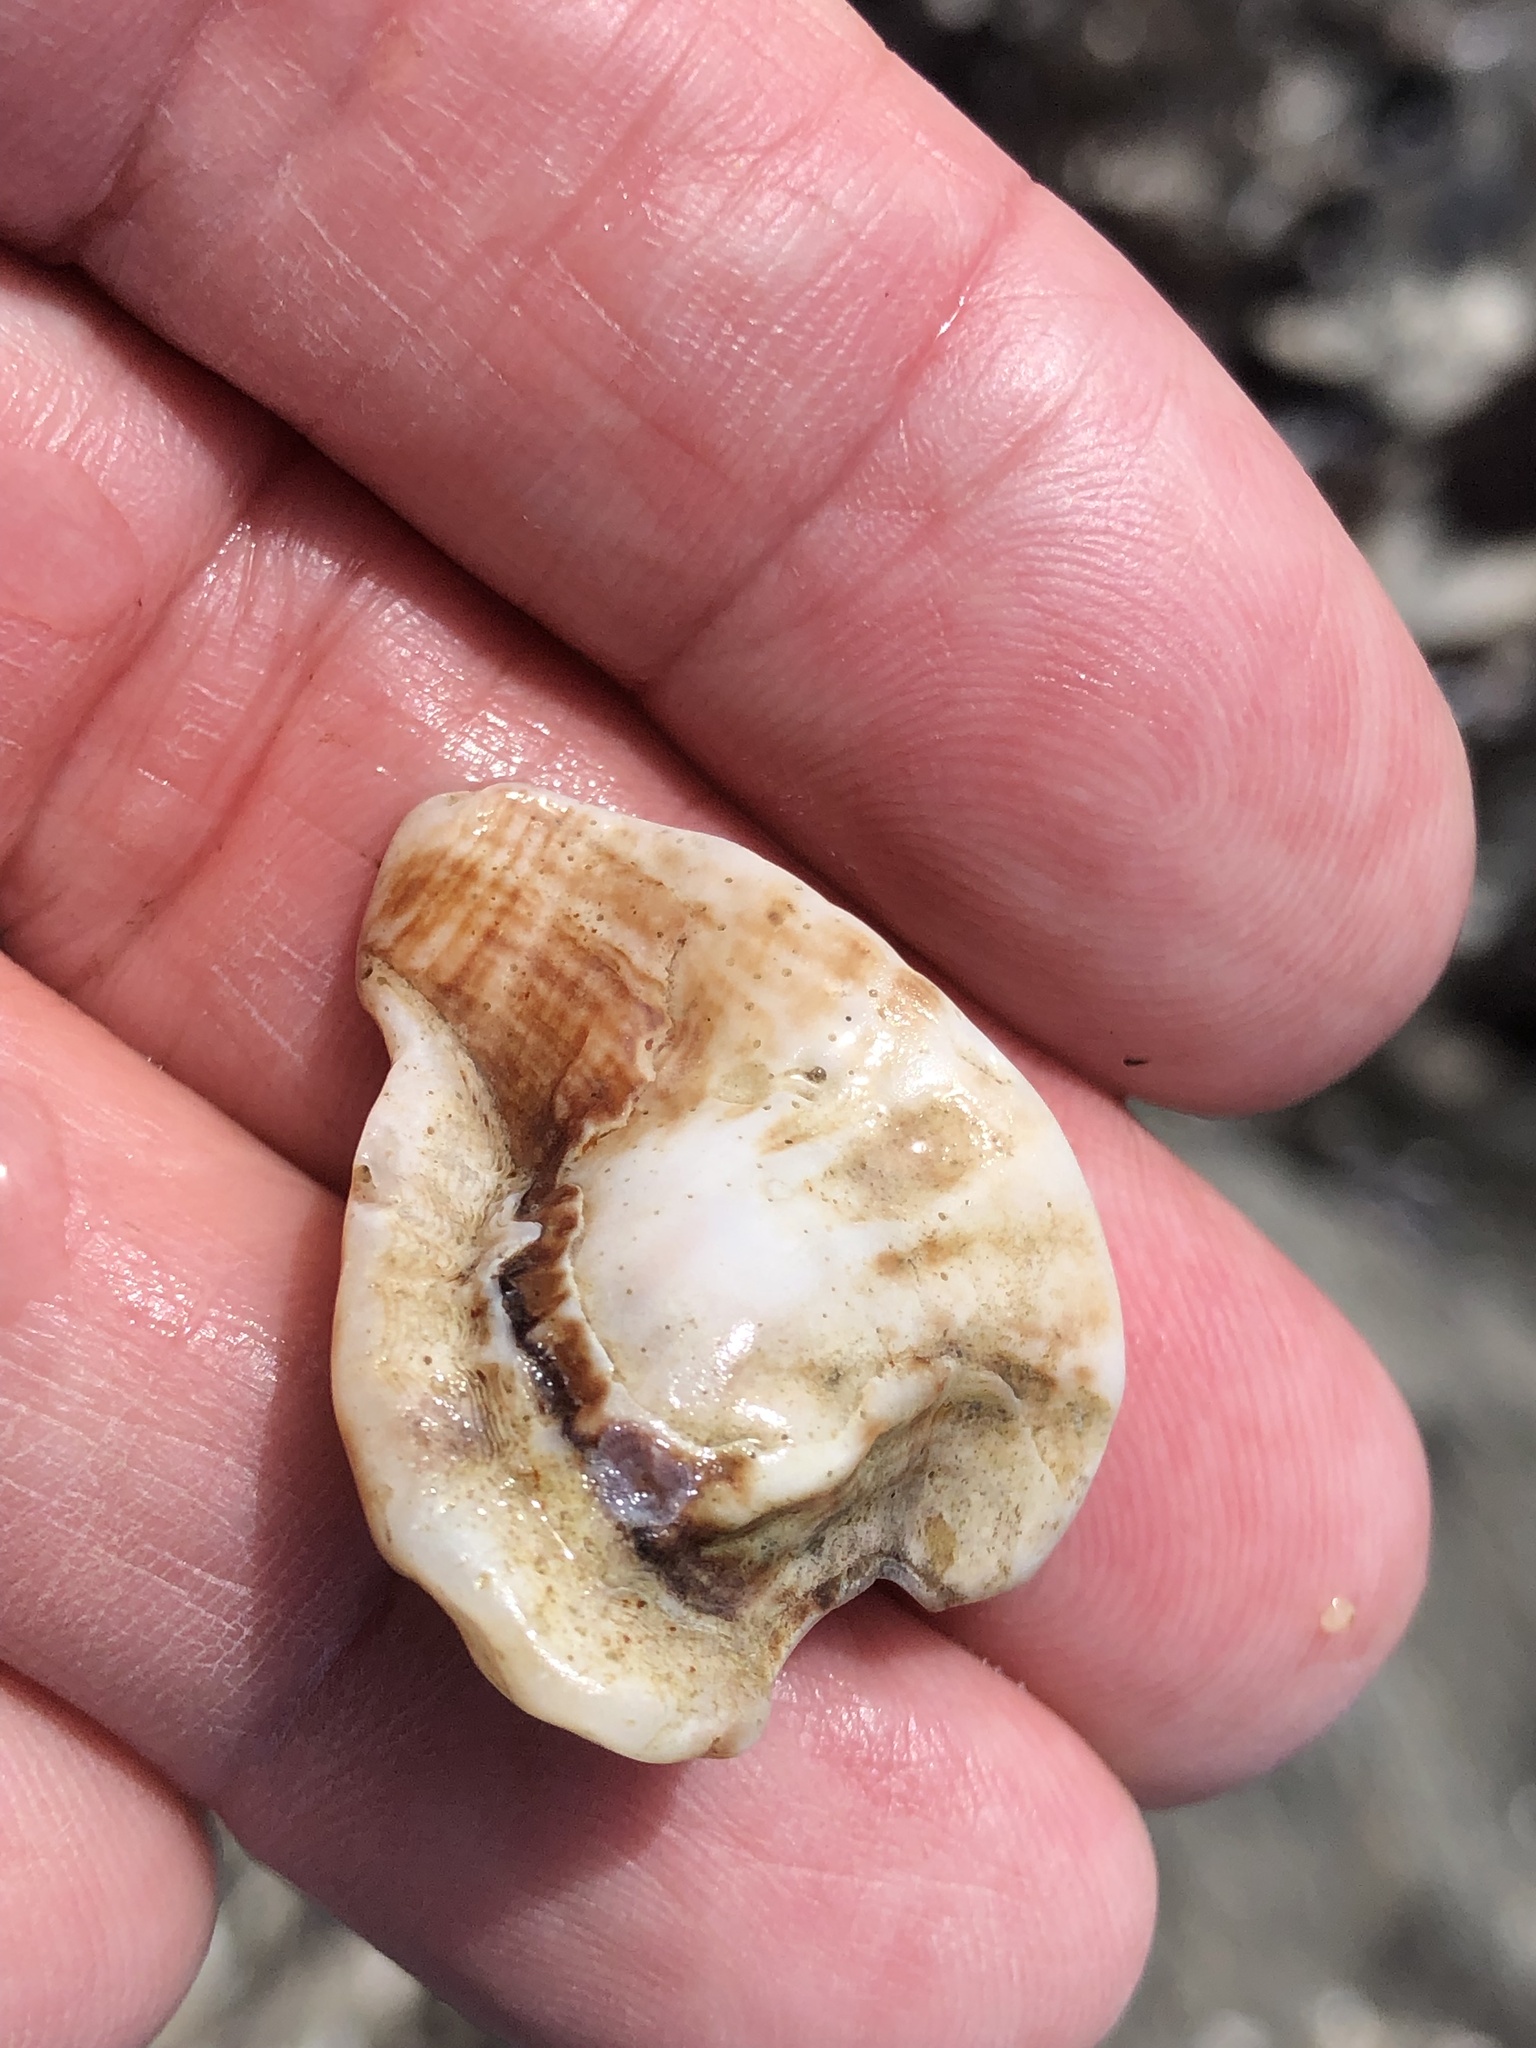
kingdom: Animalia
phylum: Mollusca
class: Gastropoda
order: Neogastropoda
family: Muricidae
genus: Ceratostoma
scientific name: Ceratostoma foliatum
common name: Foliate thorn purpura
